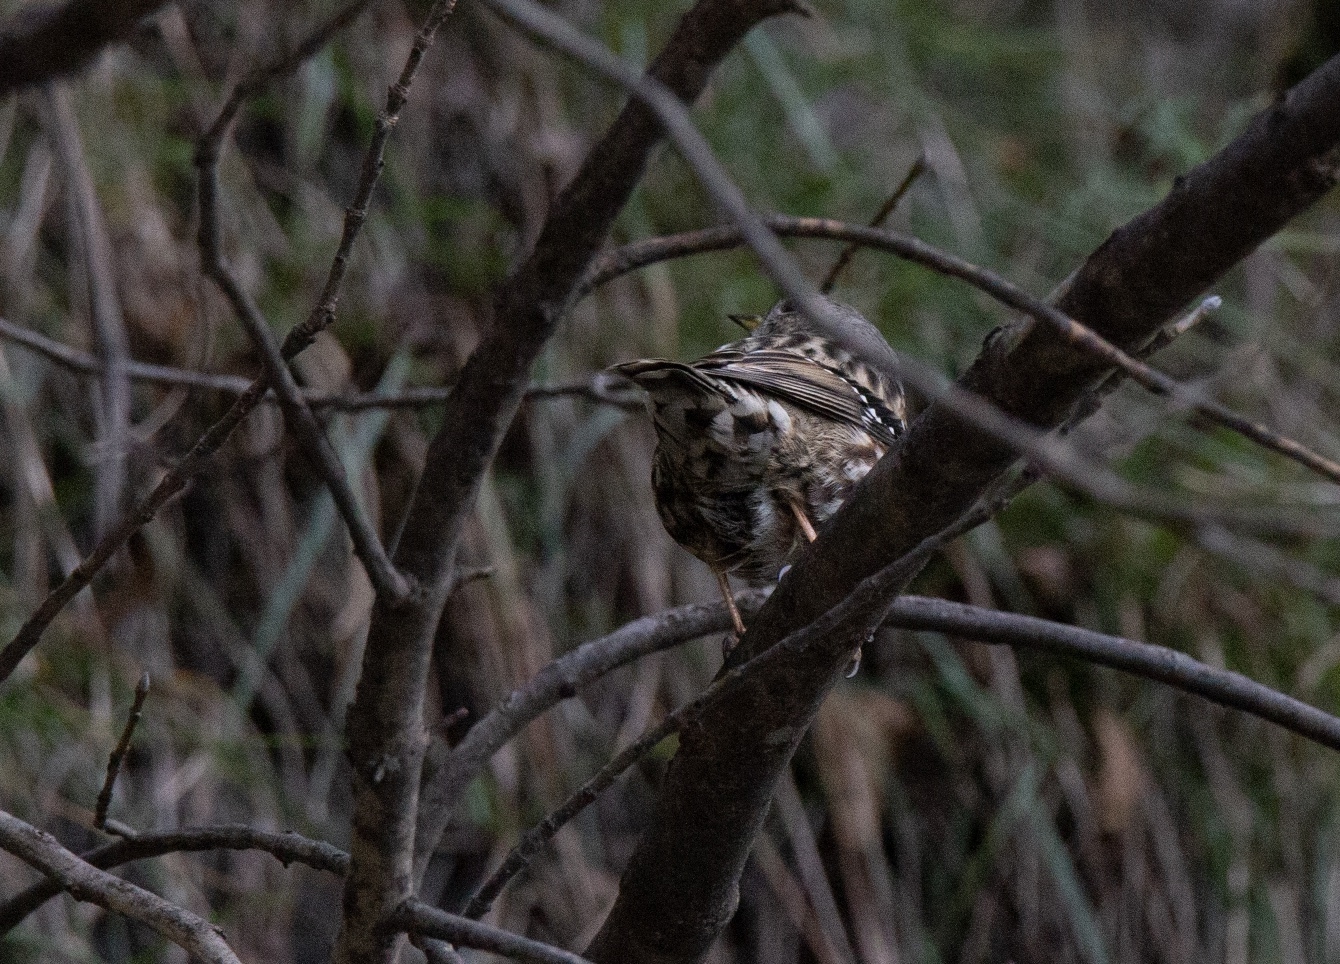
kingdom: Animalia
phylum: Chordata
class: Aves
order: Passeriformes
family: Prunellidae
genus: Prunella
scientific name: Prunella collaris
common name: Alpine accentor
